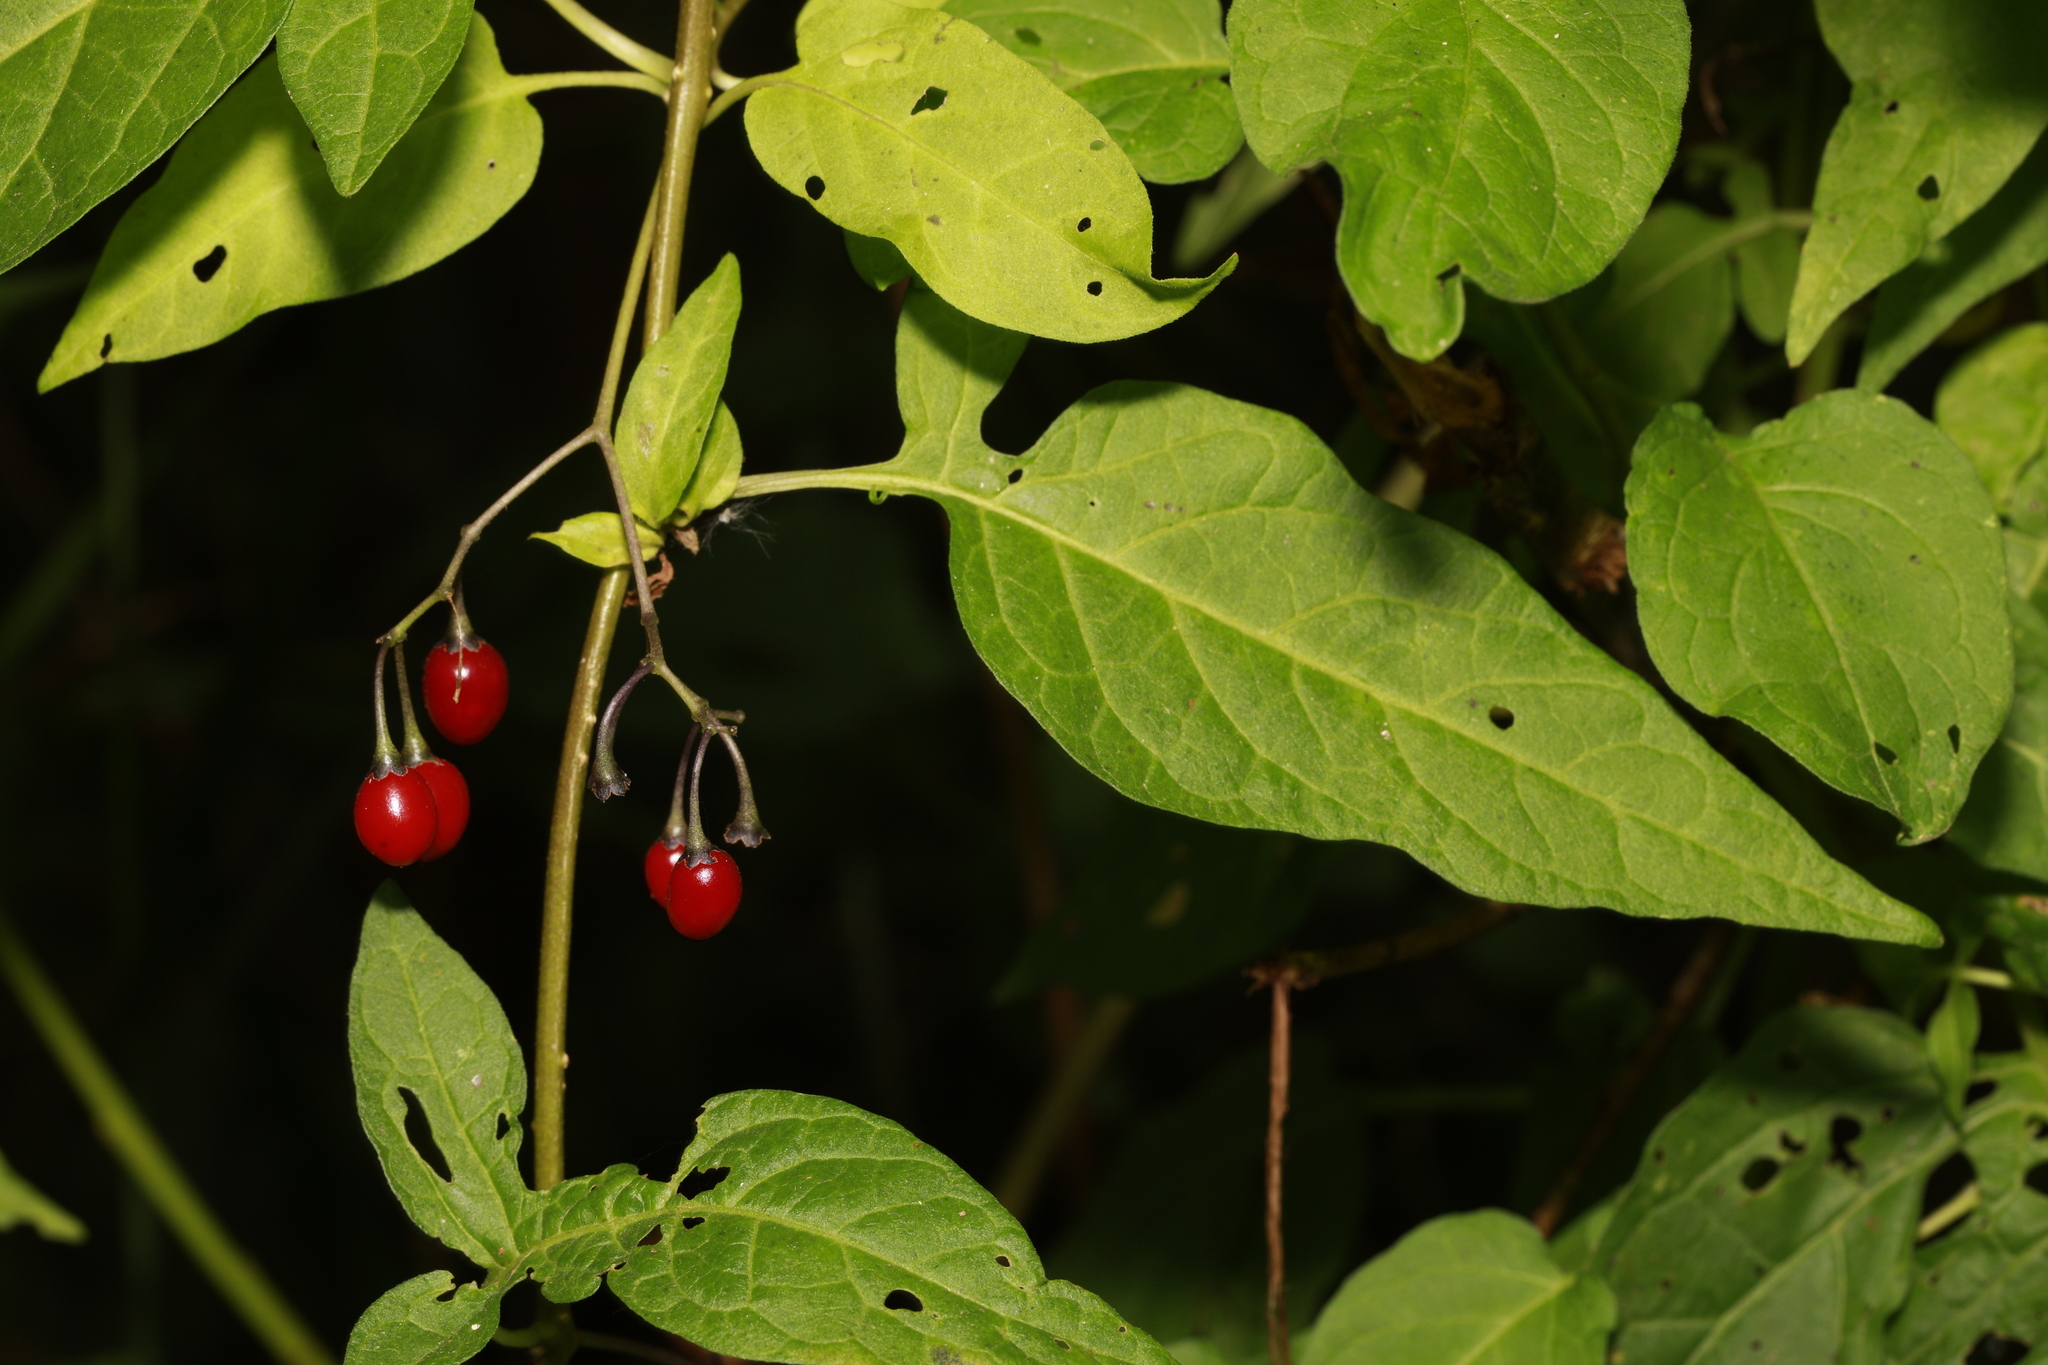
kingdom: Plantae
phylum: Tracheophyta
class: Magnoliopsida
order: Solanales
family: Solanaceae
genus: Solanum
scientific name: Solanum dulcamara
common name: Climbing nightshade
